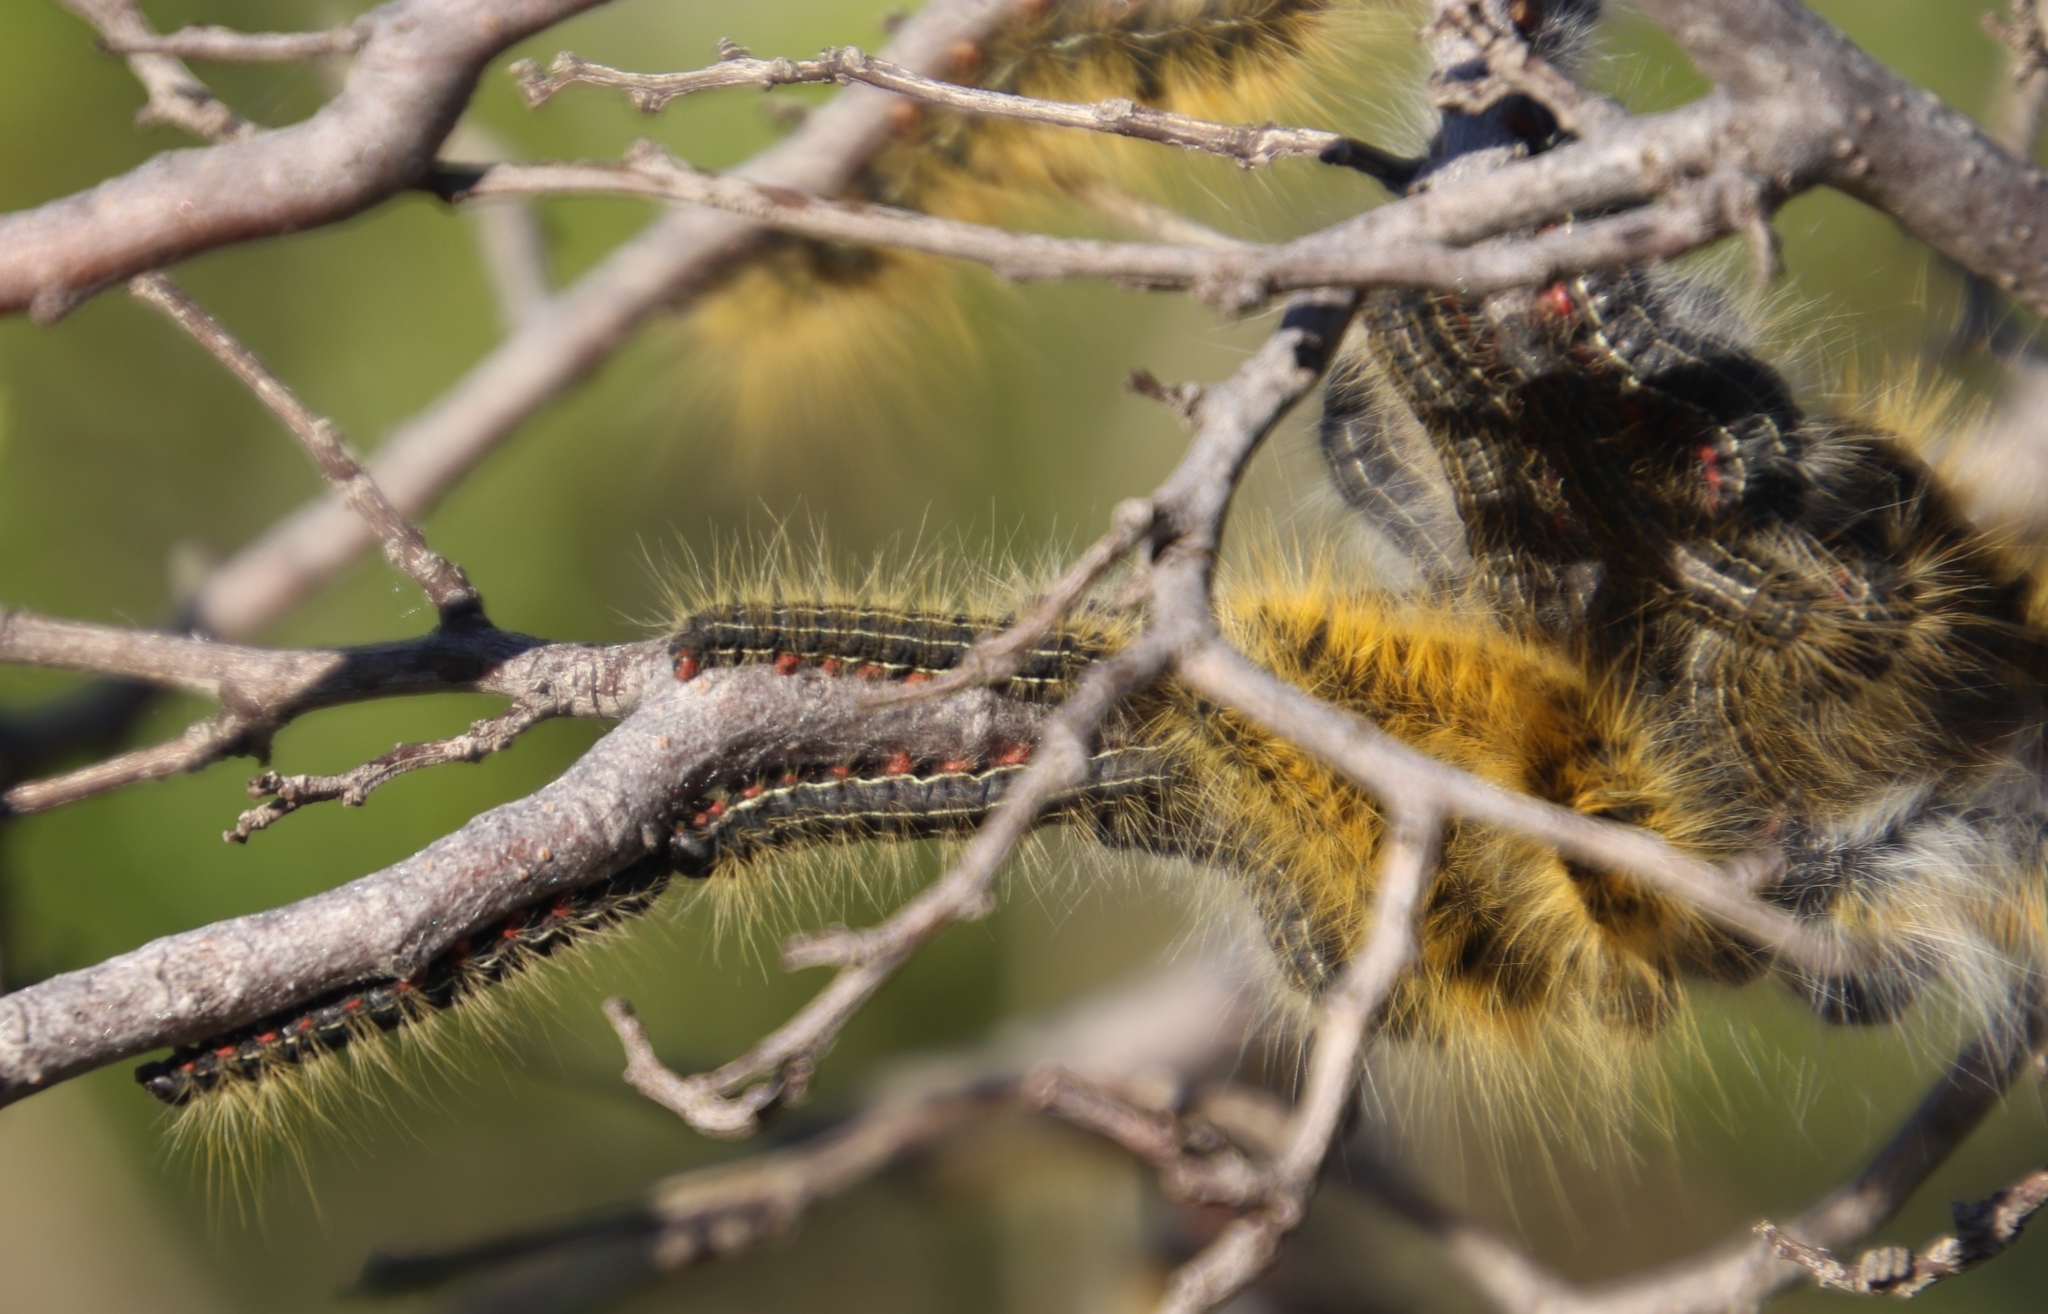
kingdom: Plantae
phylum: Tracheophyta
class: Magnoliopsida
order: Sapindales
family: Anacardiaceae
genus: Searsia
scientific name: Searsia undulata
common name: Namaqua kunibush
